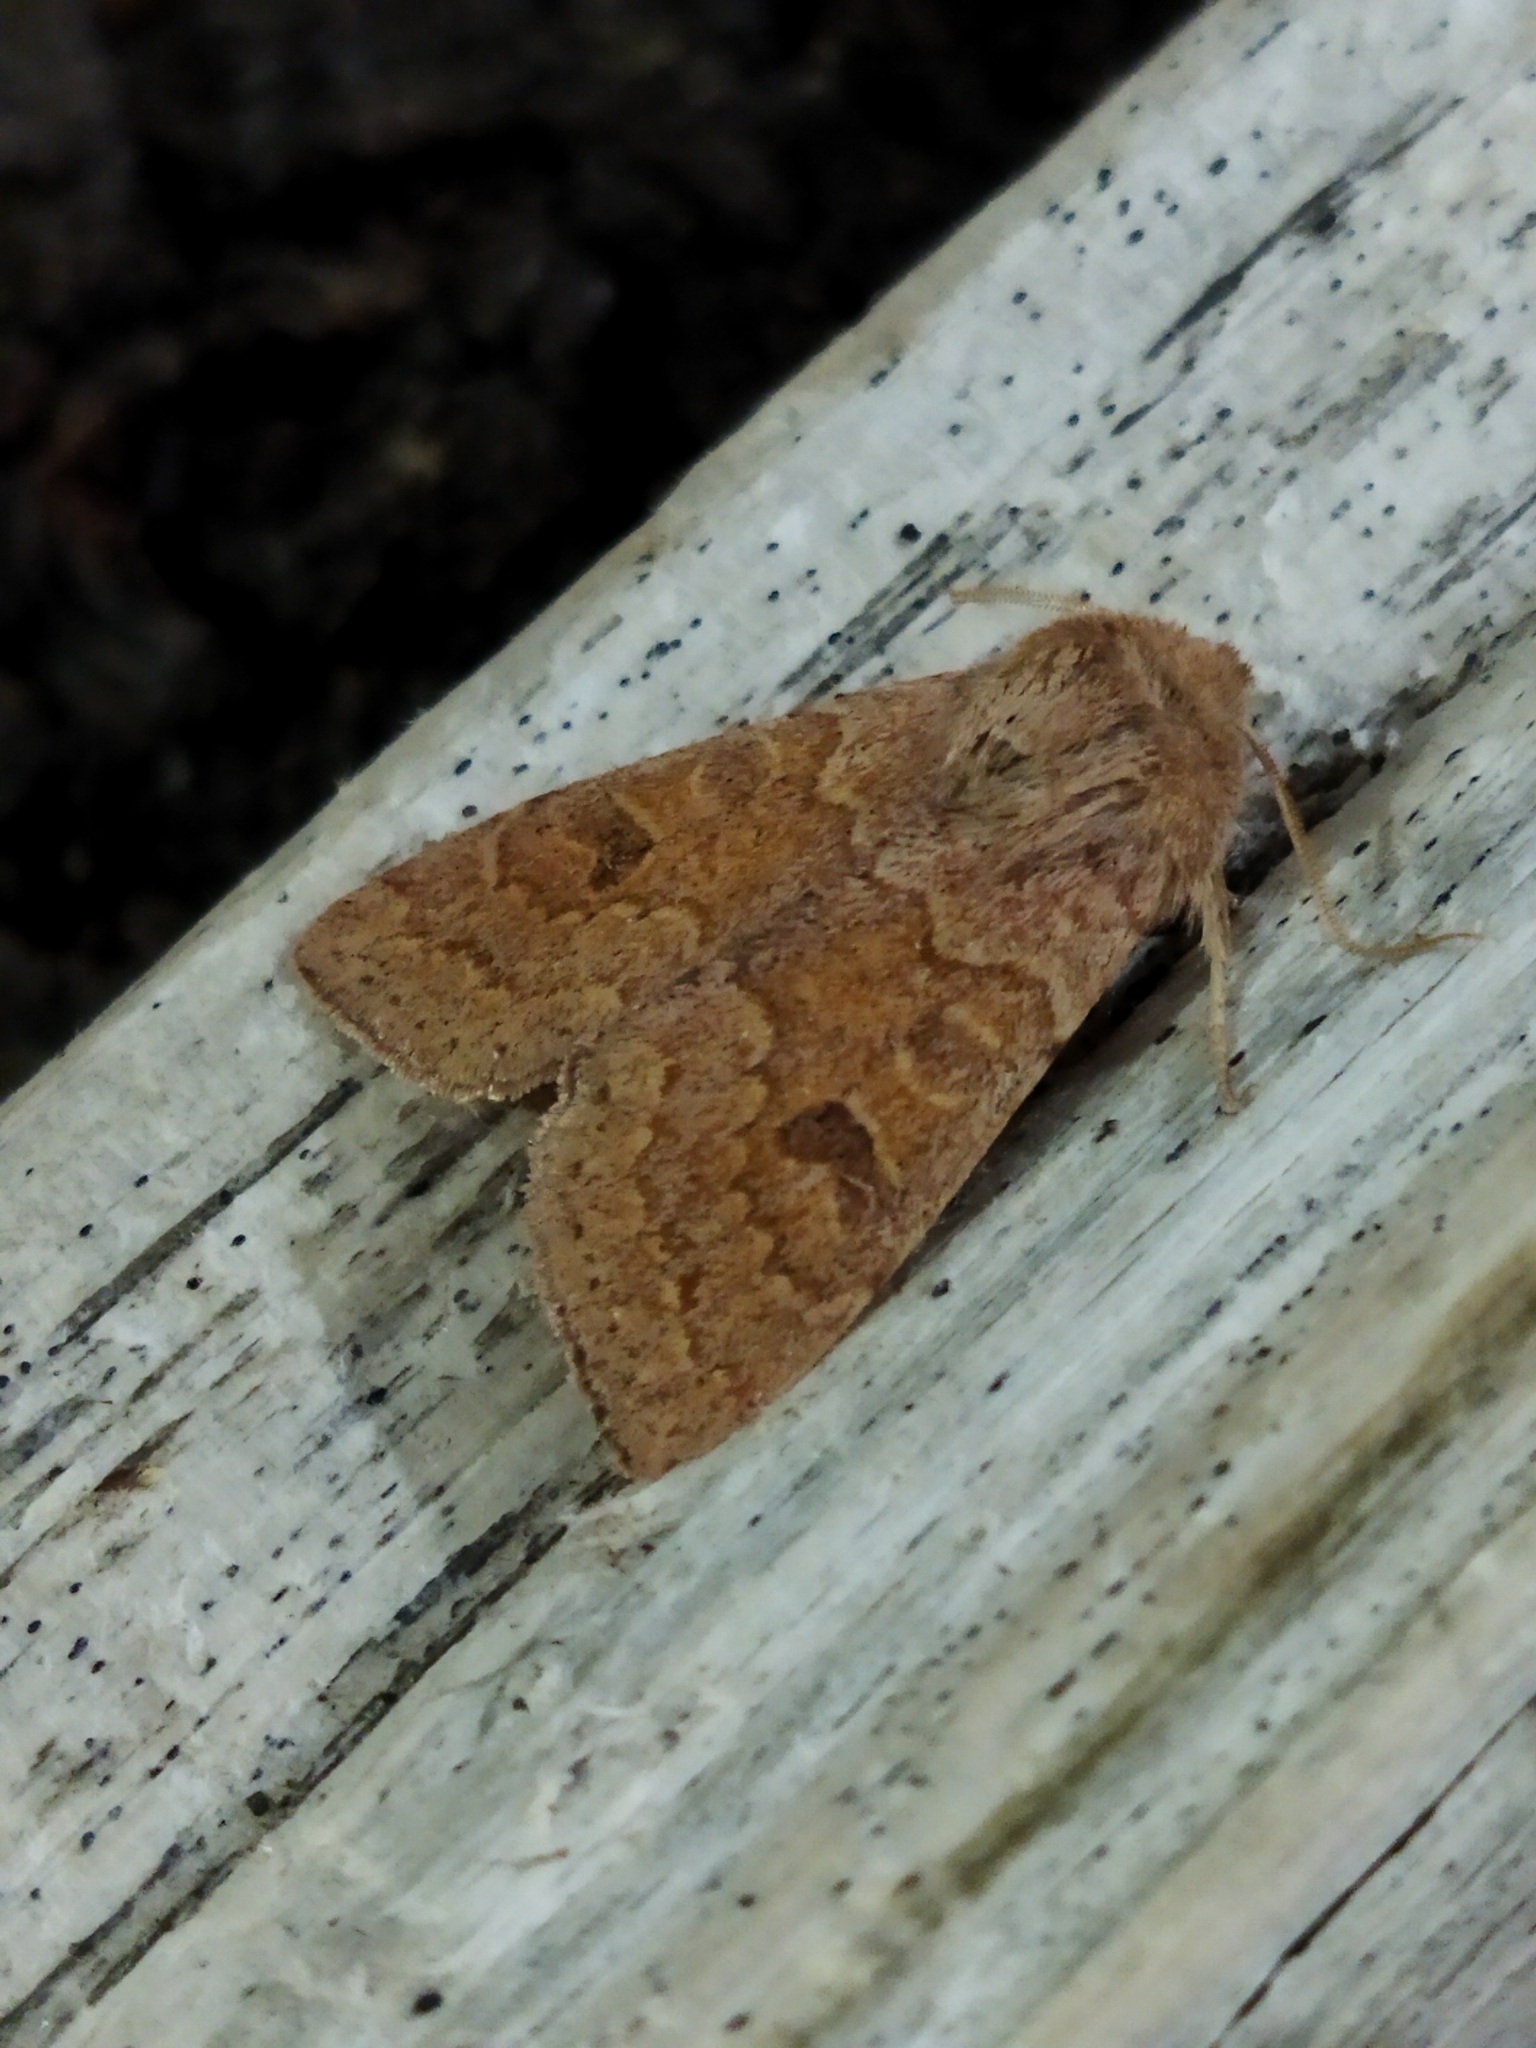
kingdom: Animalia
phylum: Arthropoda
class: Insecta
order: Lepidoptera
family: Noctuidae
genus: Orthosia
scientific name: Orthosia miniosa
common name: Blossom underwing
